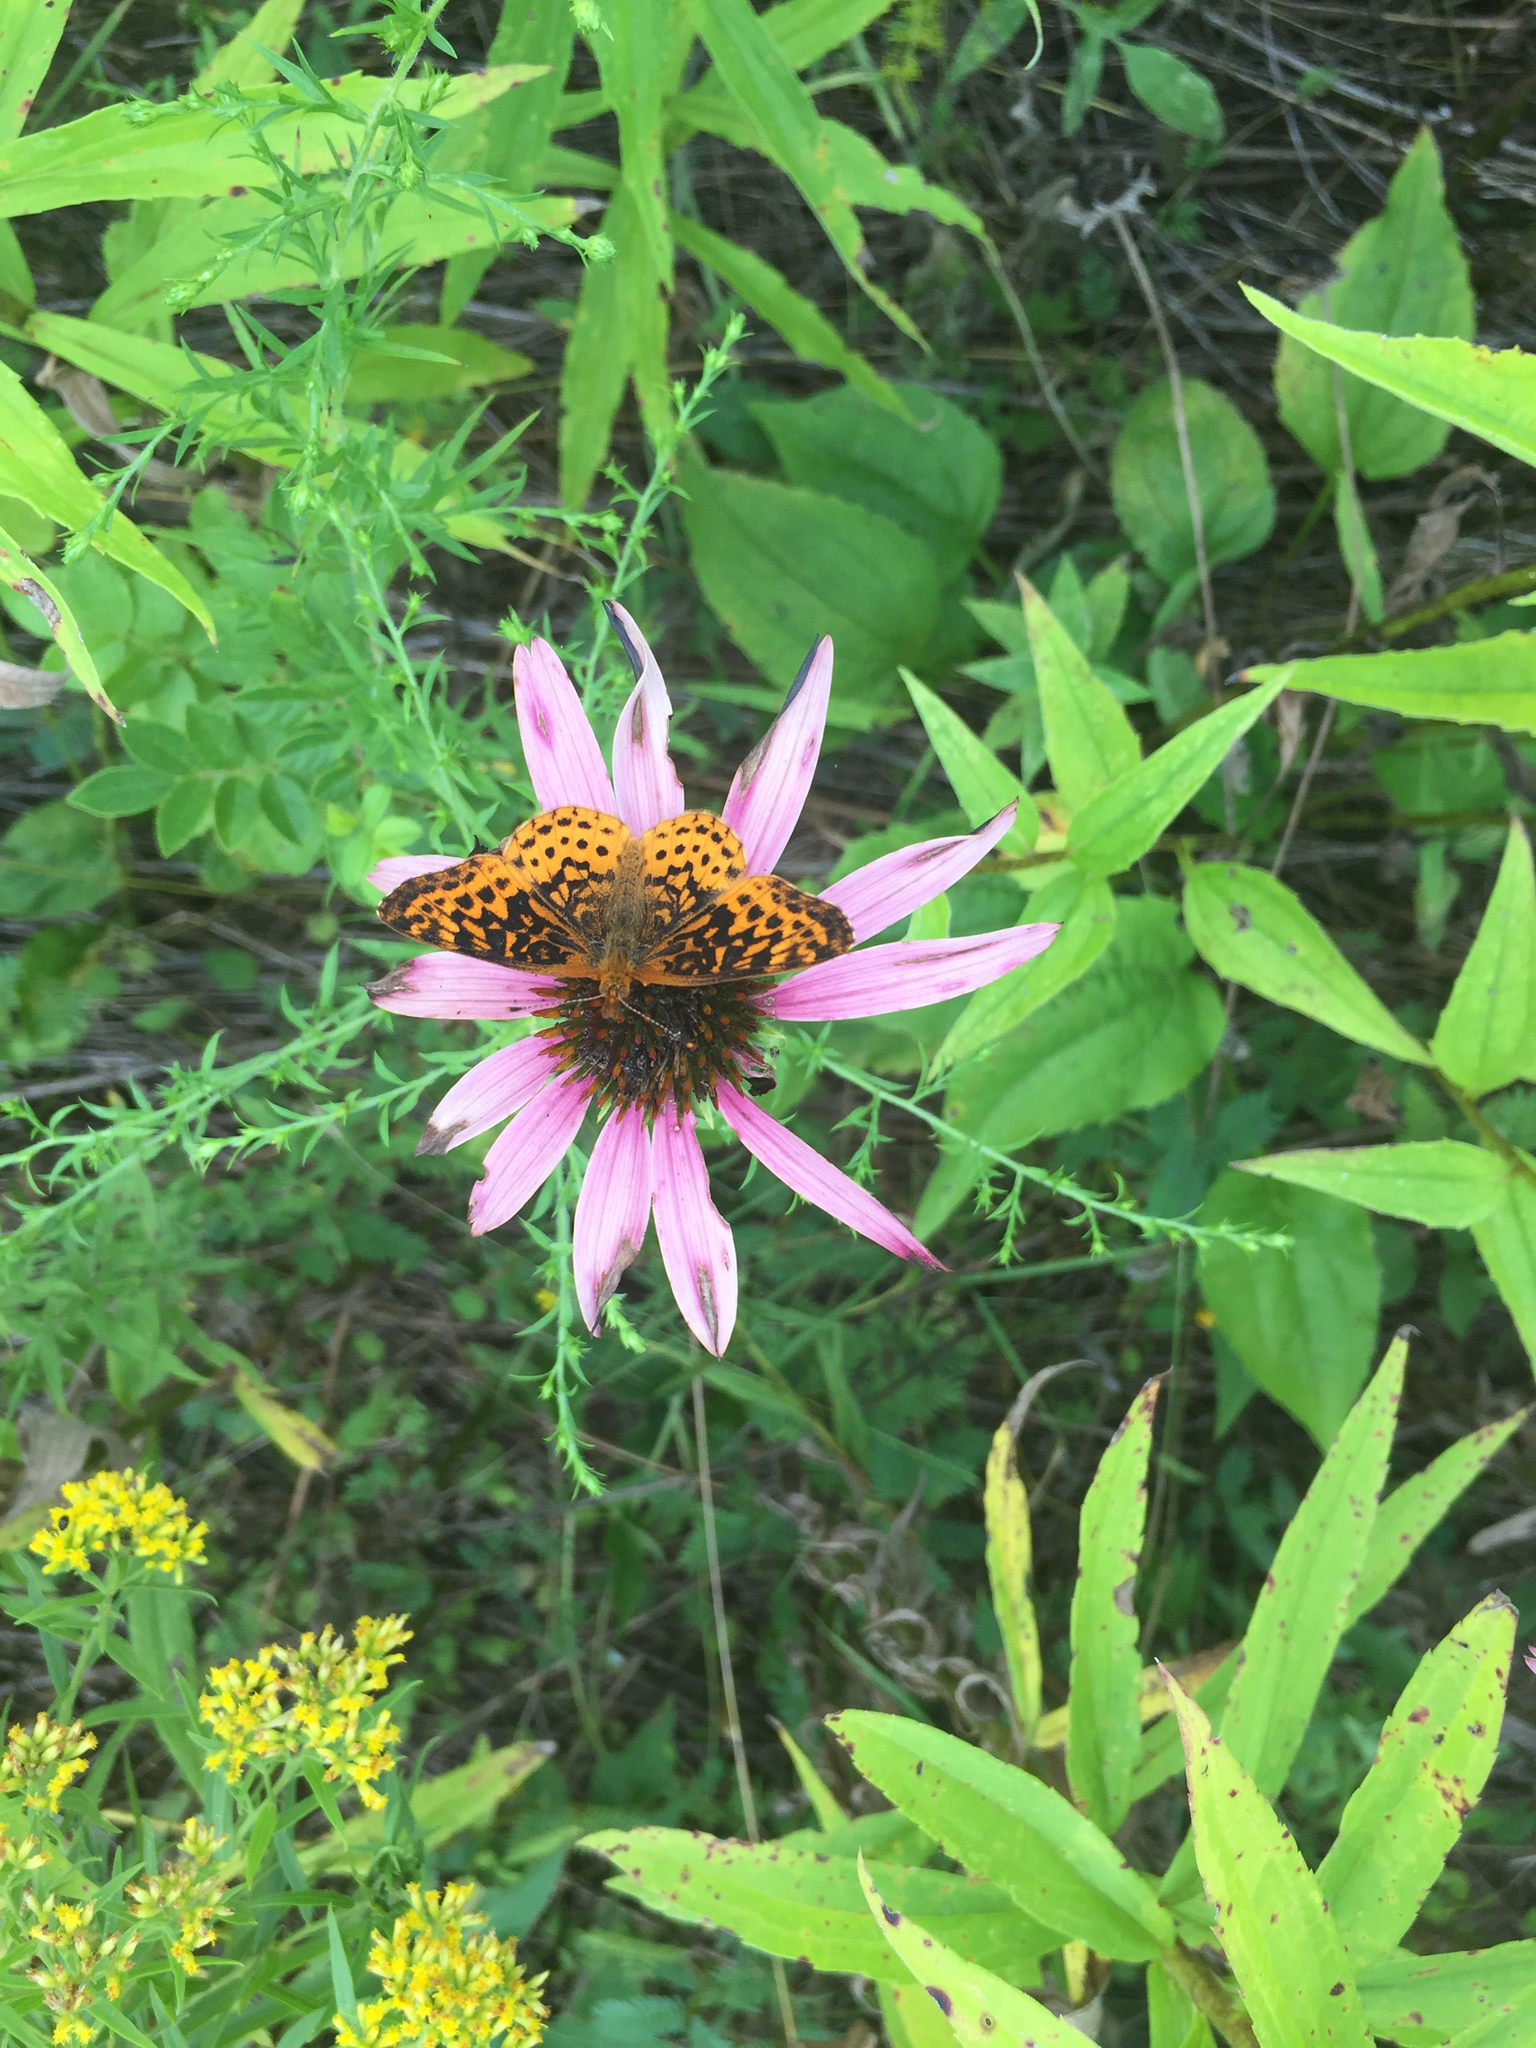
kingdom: Animalia
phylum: Arthropoda
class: Insecta
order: Lepidoptera
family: Nymphalidae
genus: Clossiana
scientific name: Clossiana toddi
